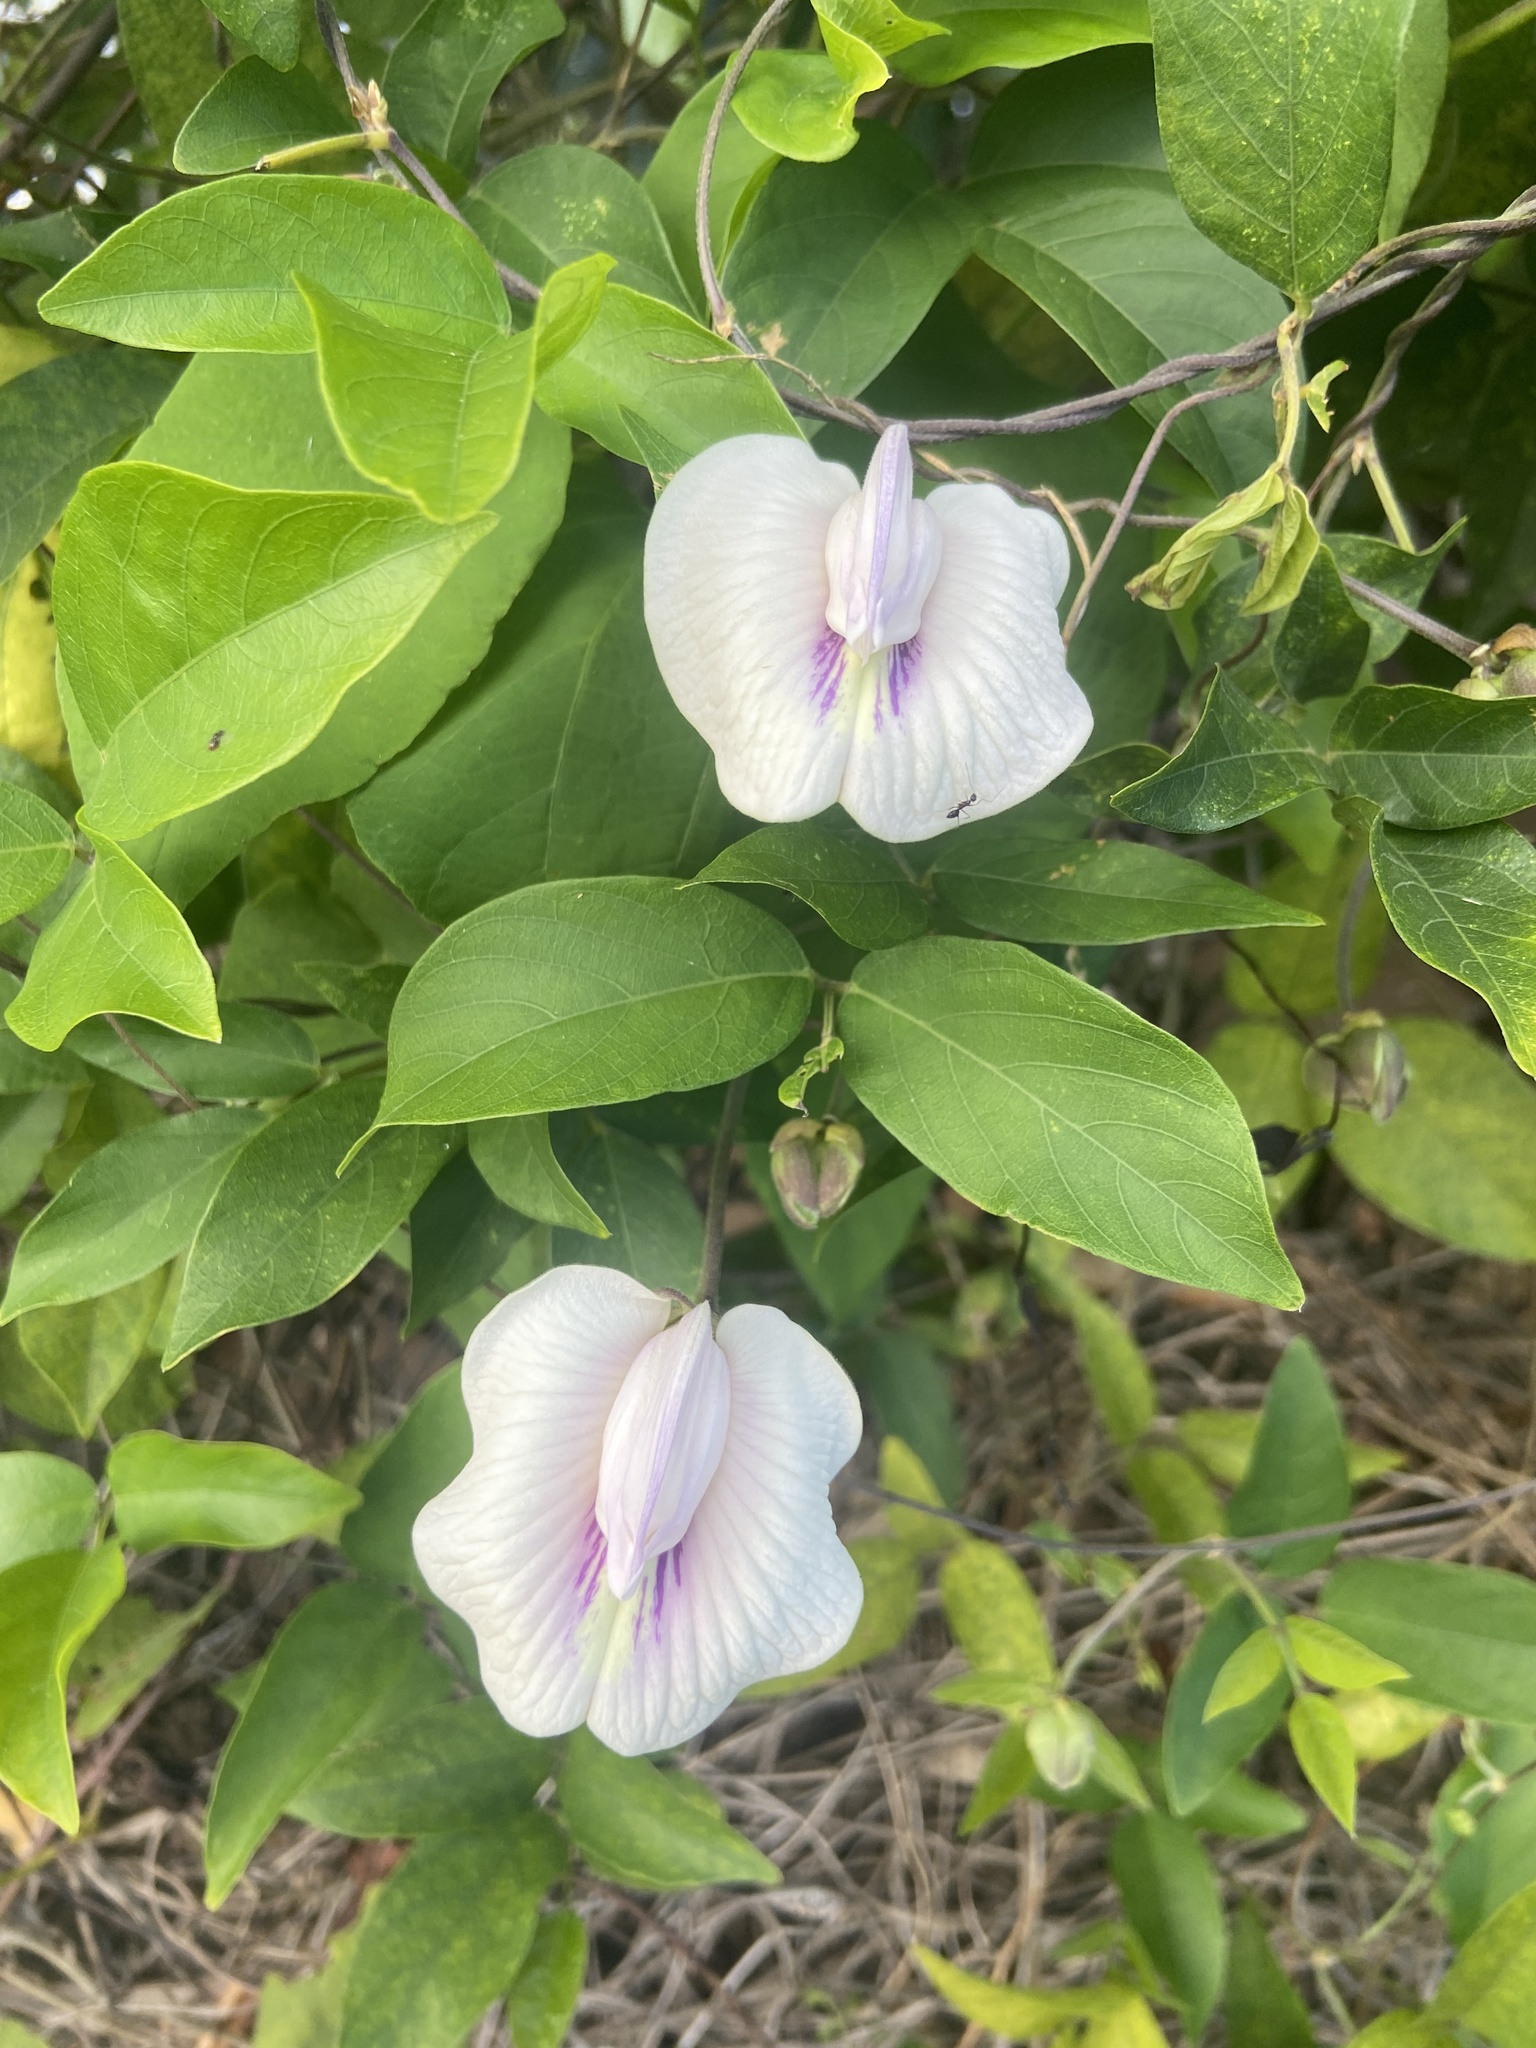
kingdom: Plantae
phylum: Tracheophyta
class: Magnoliopsida
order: Fabales
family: Fabaceae
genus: Centrosema
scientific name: Centrosema pubescens
